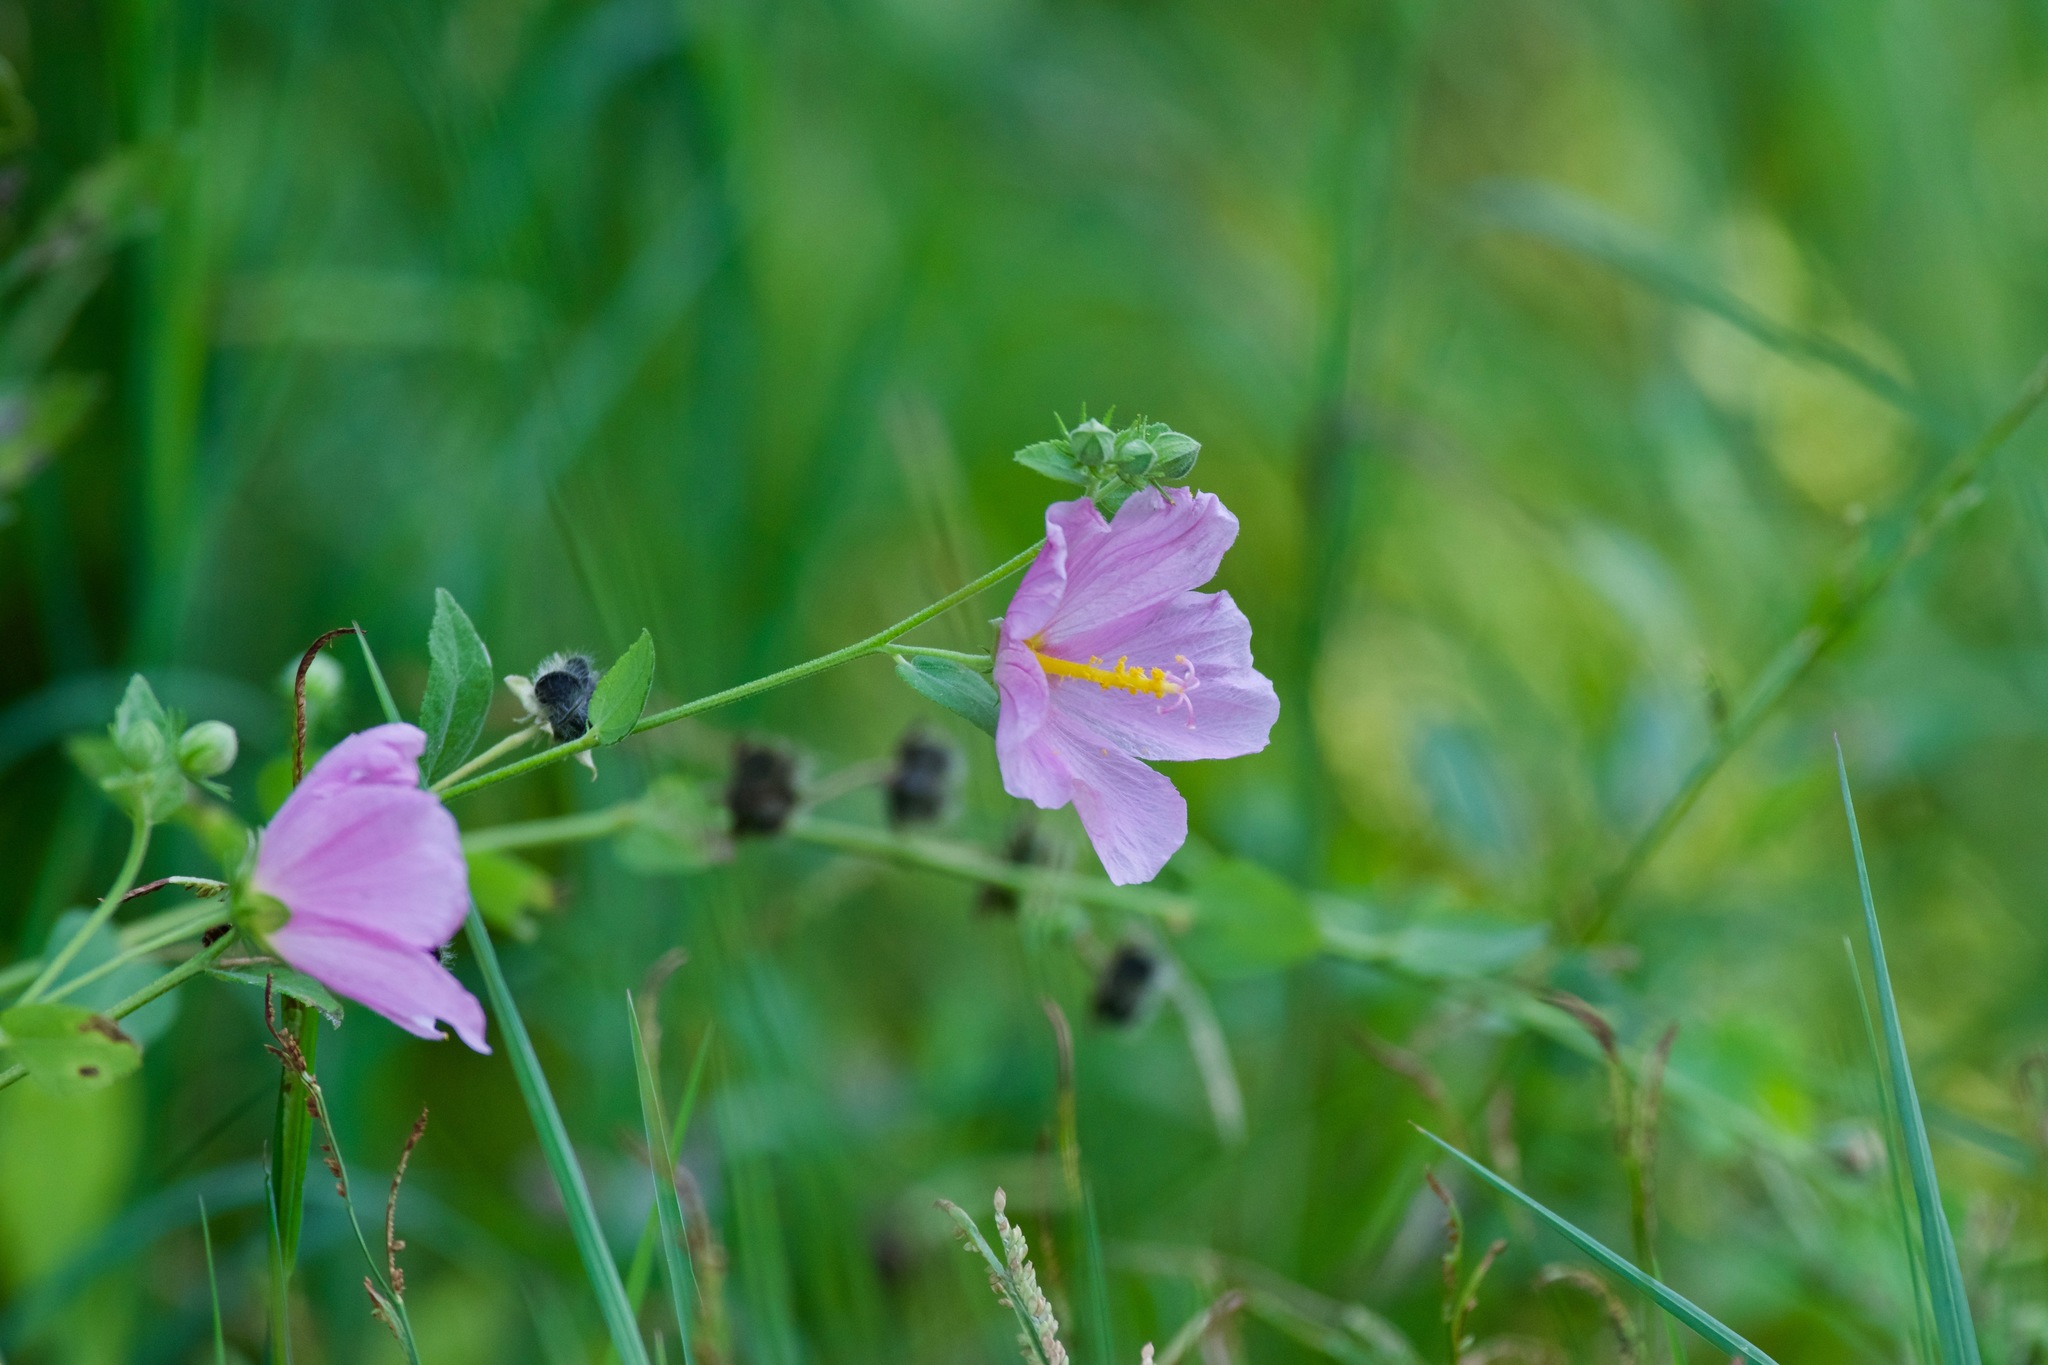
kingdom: Plantae
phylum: Tracheophyta
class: Magnoliopsida
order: Malvales
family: Malvaceae
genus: Kosteletzkya
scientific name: Kosteletzkya pentacarpos
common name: Virginia saltmarsh mallow
